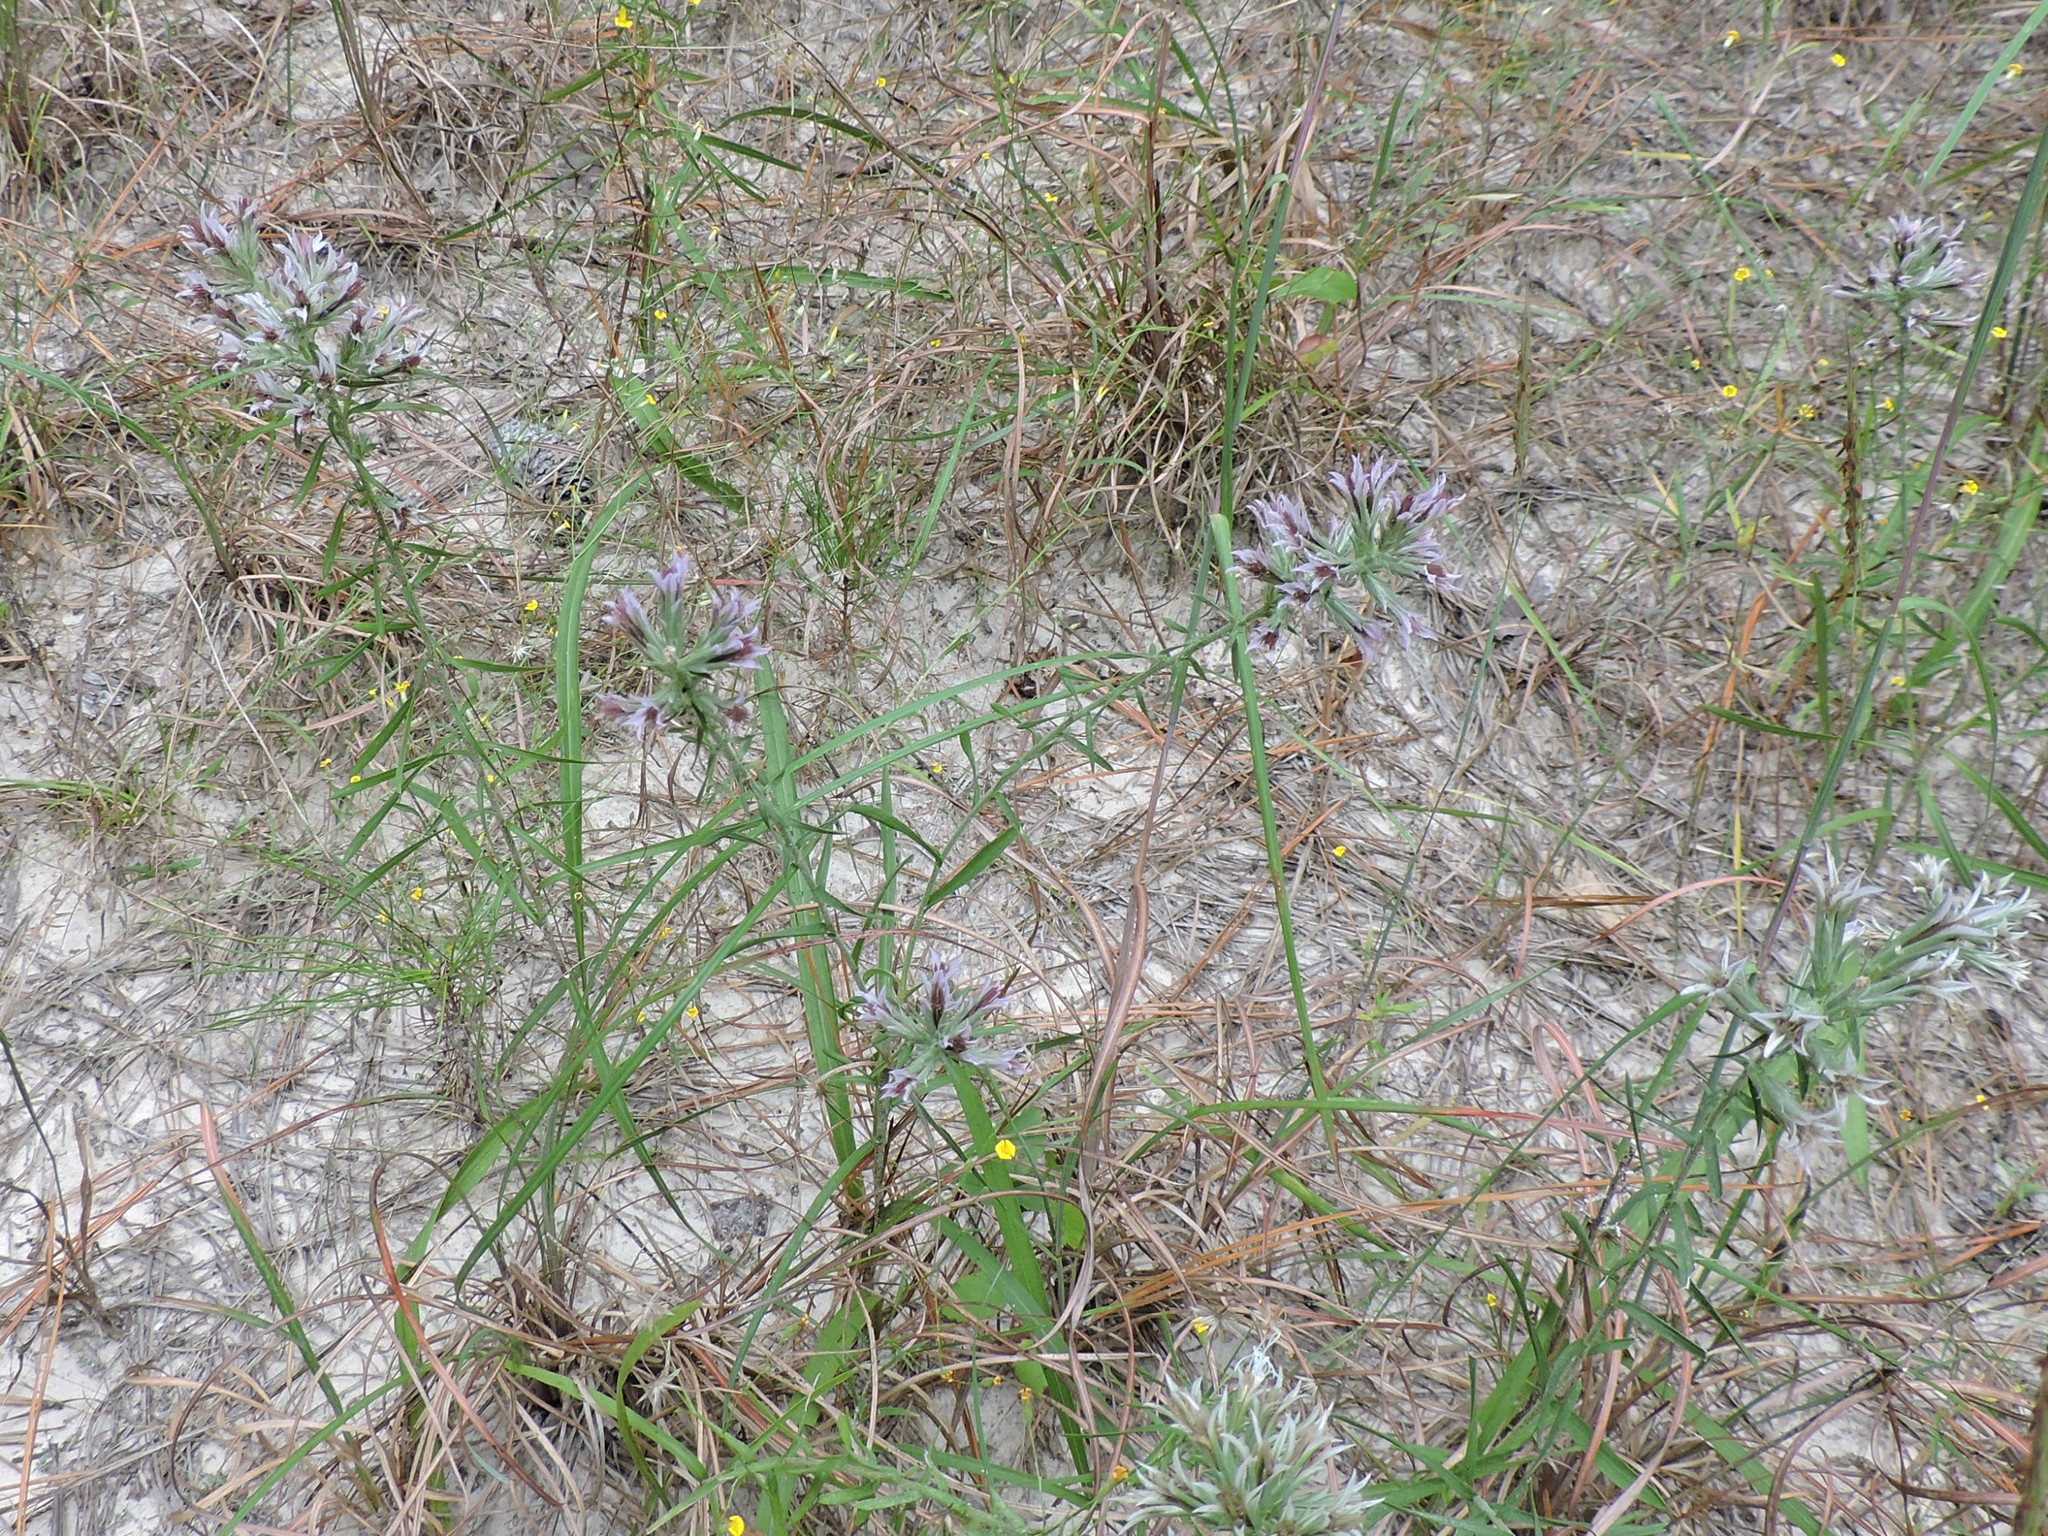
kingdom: Plantae
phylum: Tracheophyta
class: Magnoliopsida
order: Asterales
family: Asteraceae
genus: Liatris
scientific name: Liatris hesperelegans
